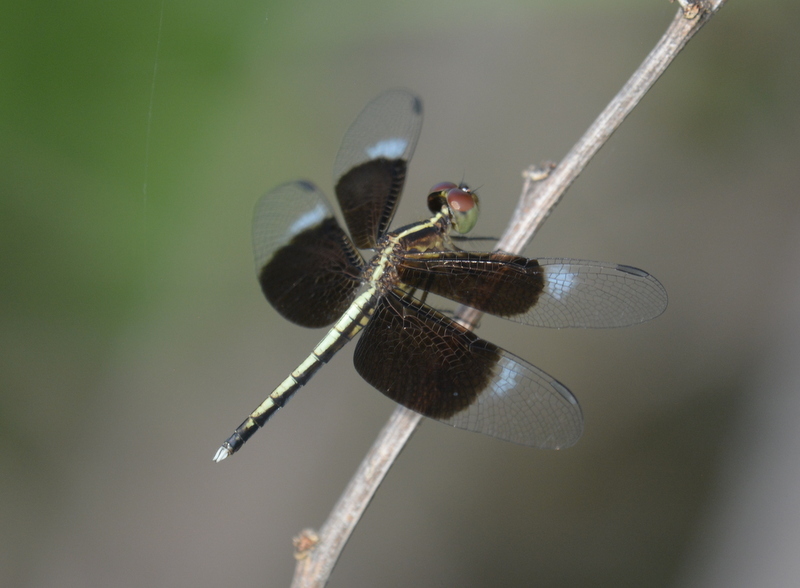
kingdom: Animalia
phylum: Arthropoda
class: Insecta
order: Odonata
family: Libellulidae
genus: Neurothemis
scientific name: Neurothemis tullia
